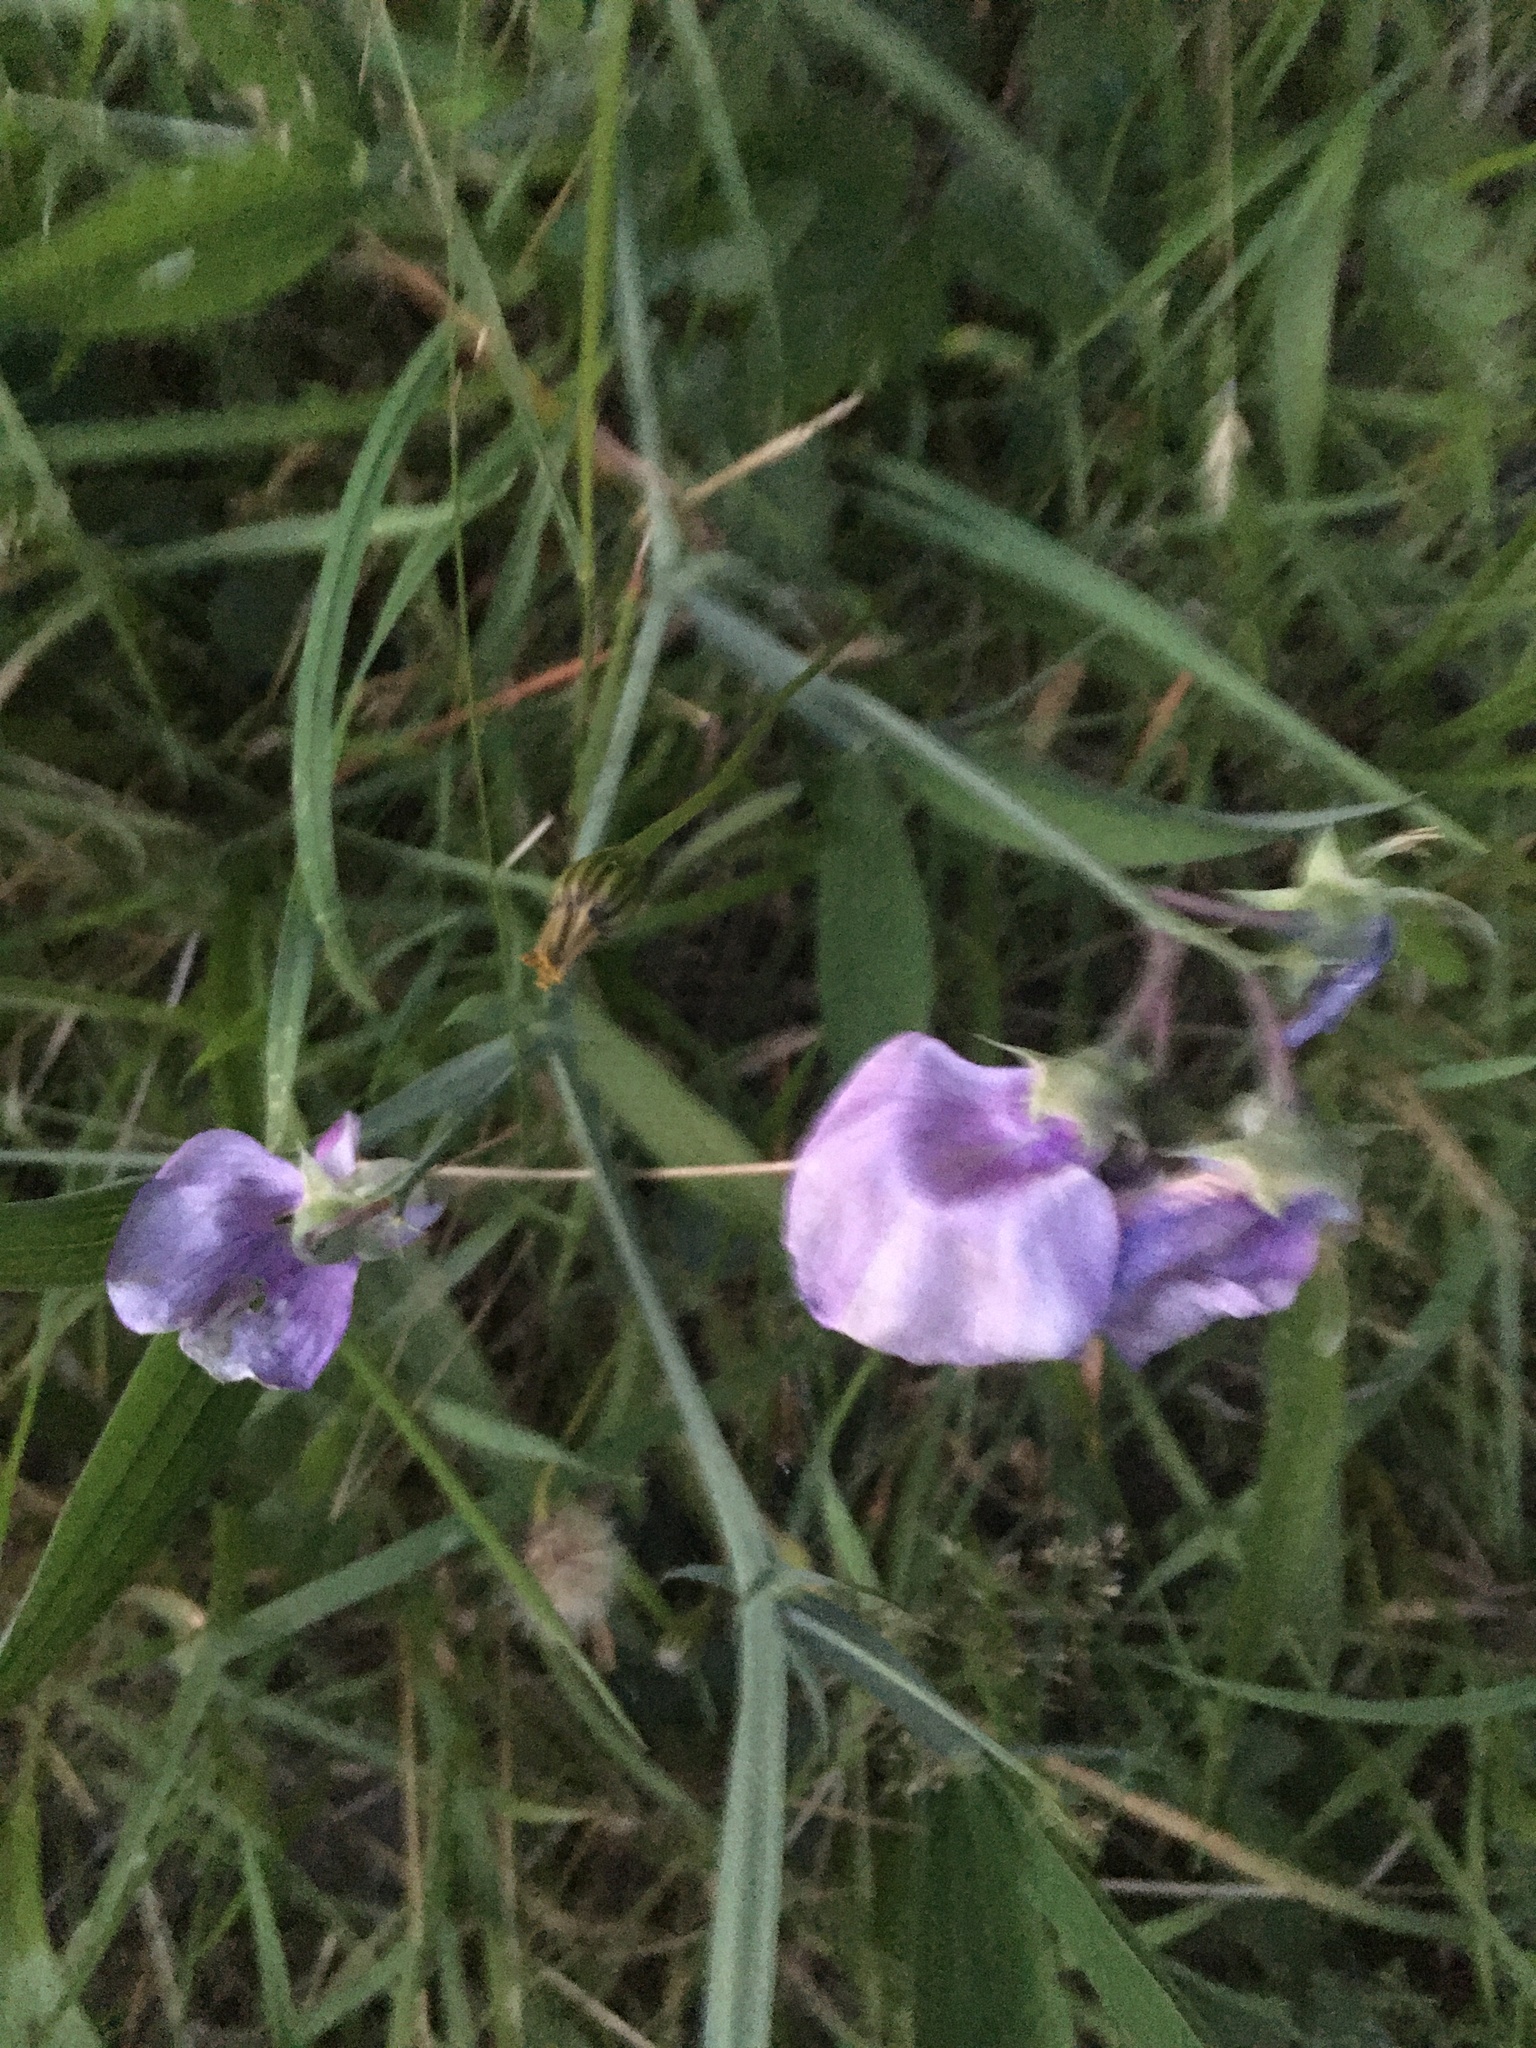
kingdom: Plantae
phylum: Tracheophyta
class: Magnoliopsida
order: Fabales
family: Fabaceae
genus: Lathyrus
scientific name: Lathyrus latifolius
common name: Perennial pea
